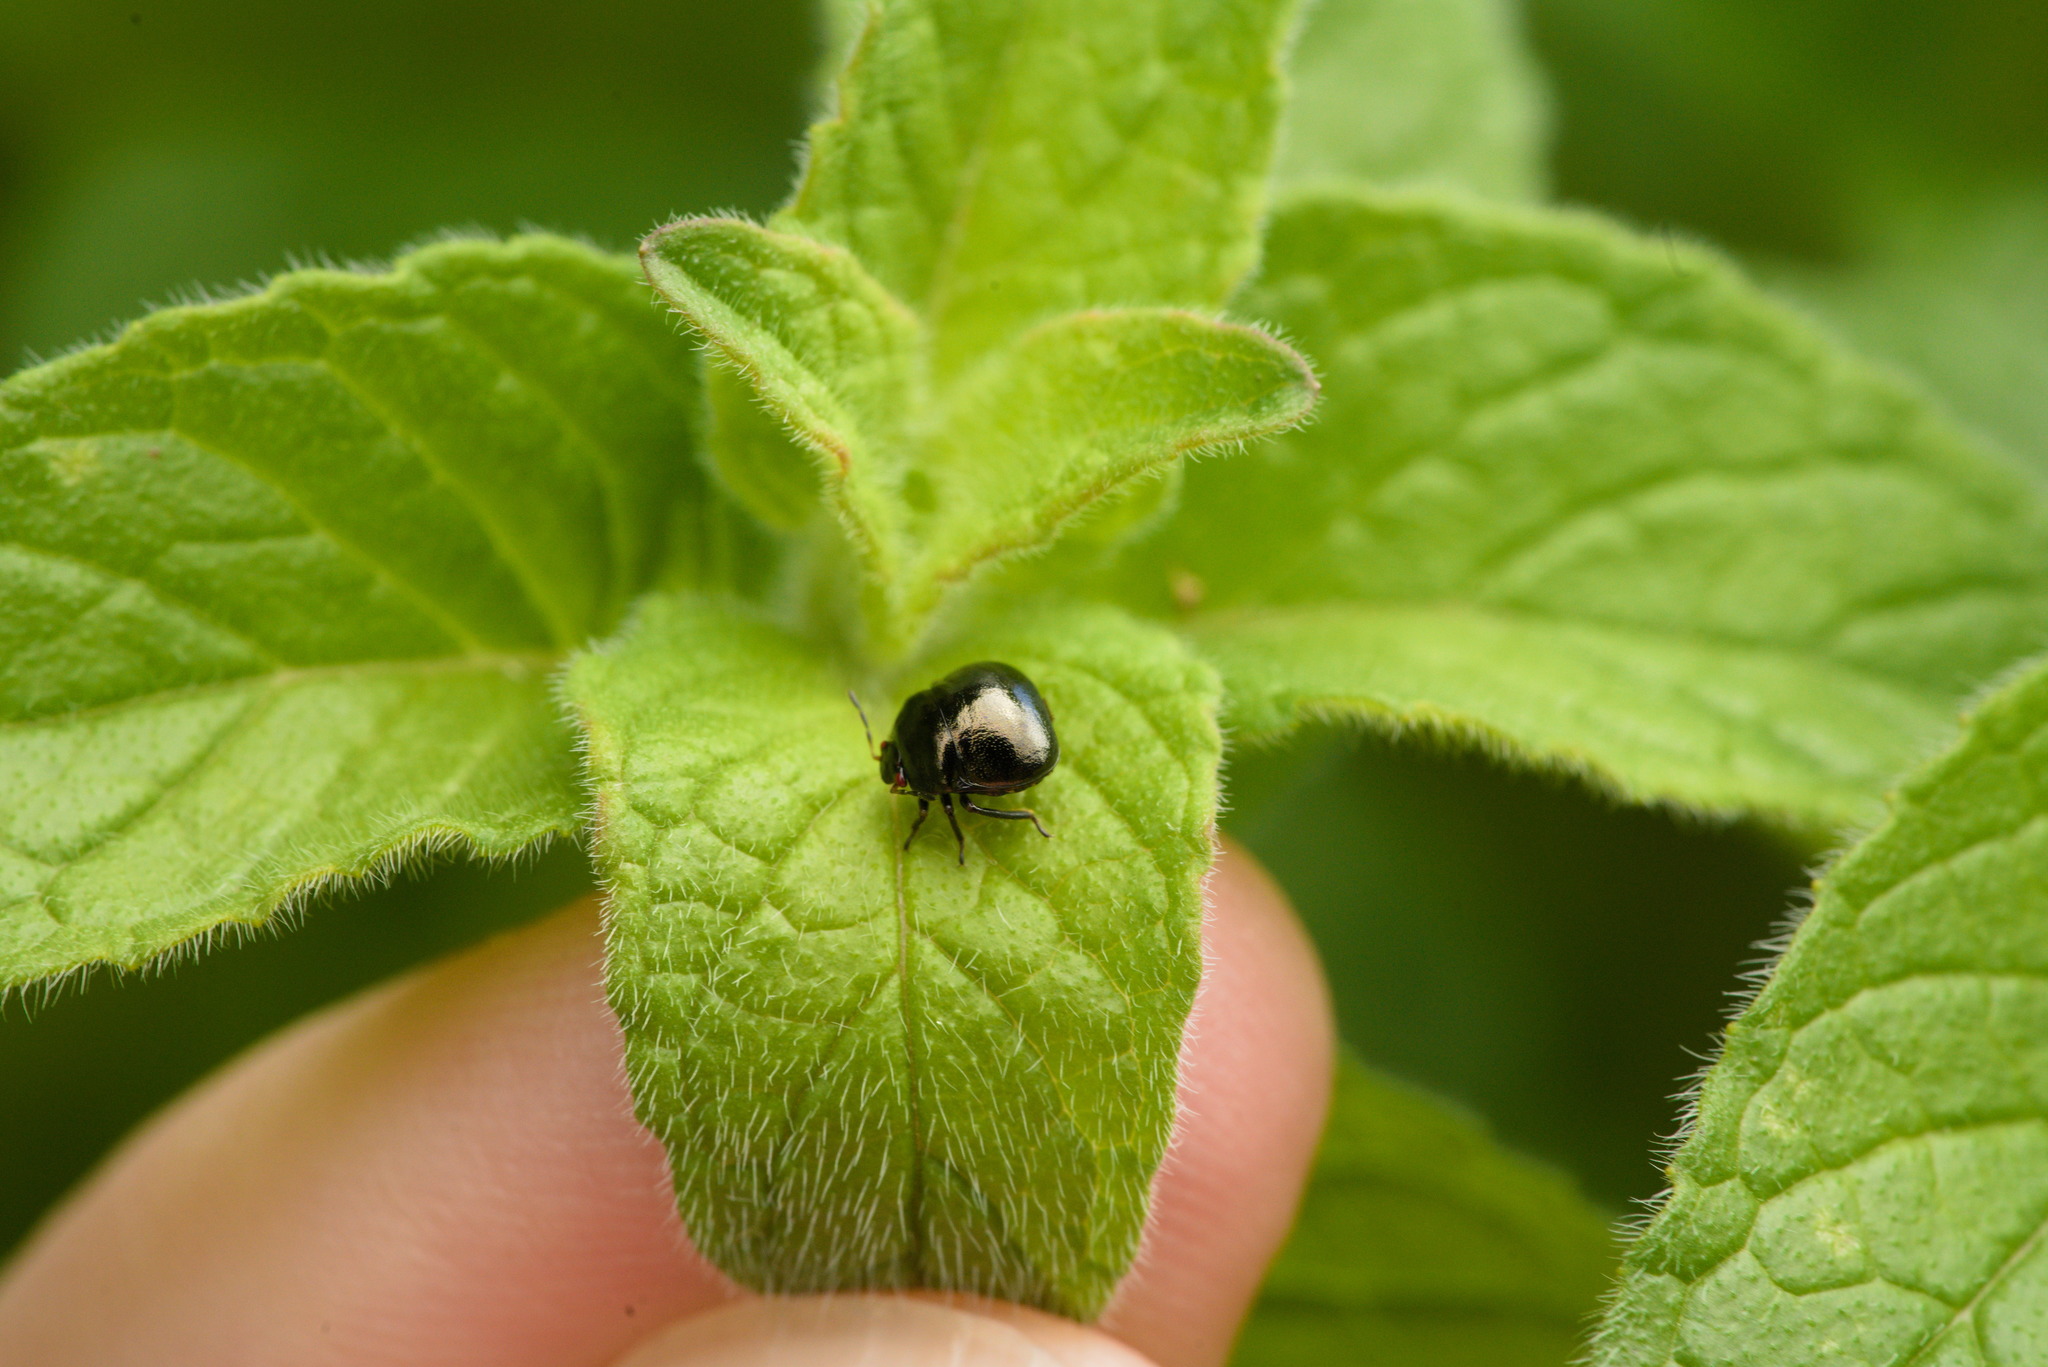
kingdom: Animalia
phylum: Arthropoda
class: Insecta
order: Hemiptera
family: Plataspidae
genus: Coptosoma
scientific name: Coptosoma scutellatum
